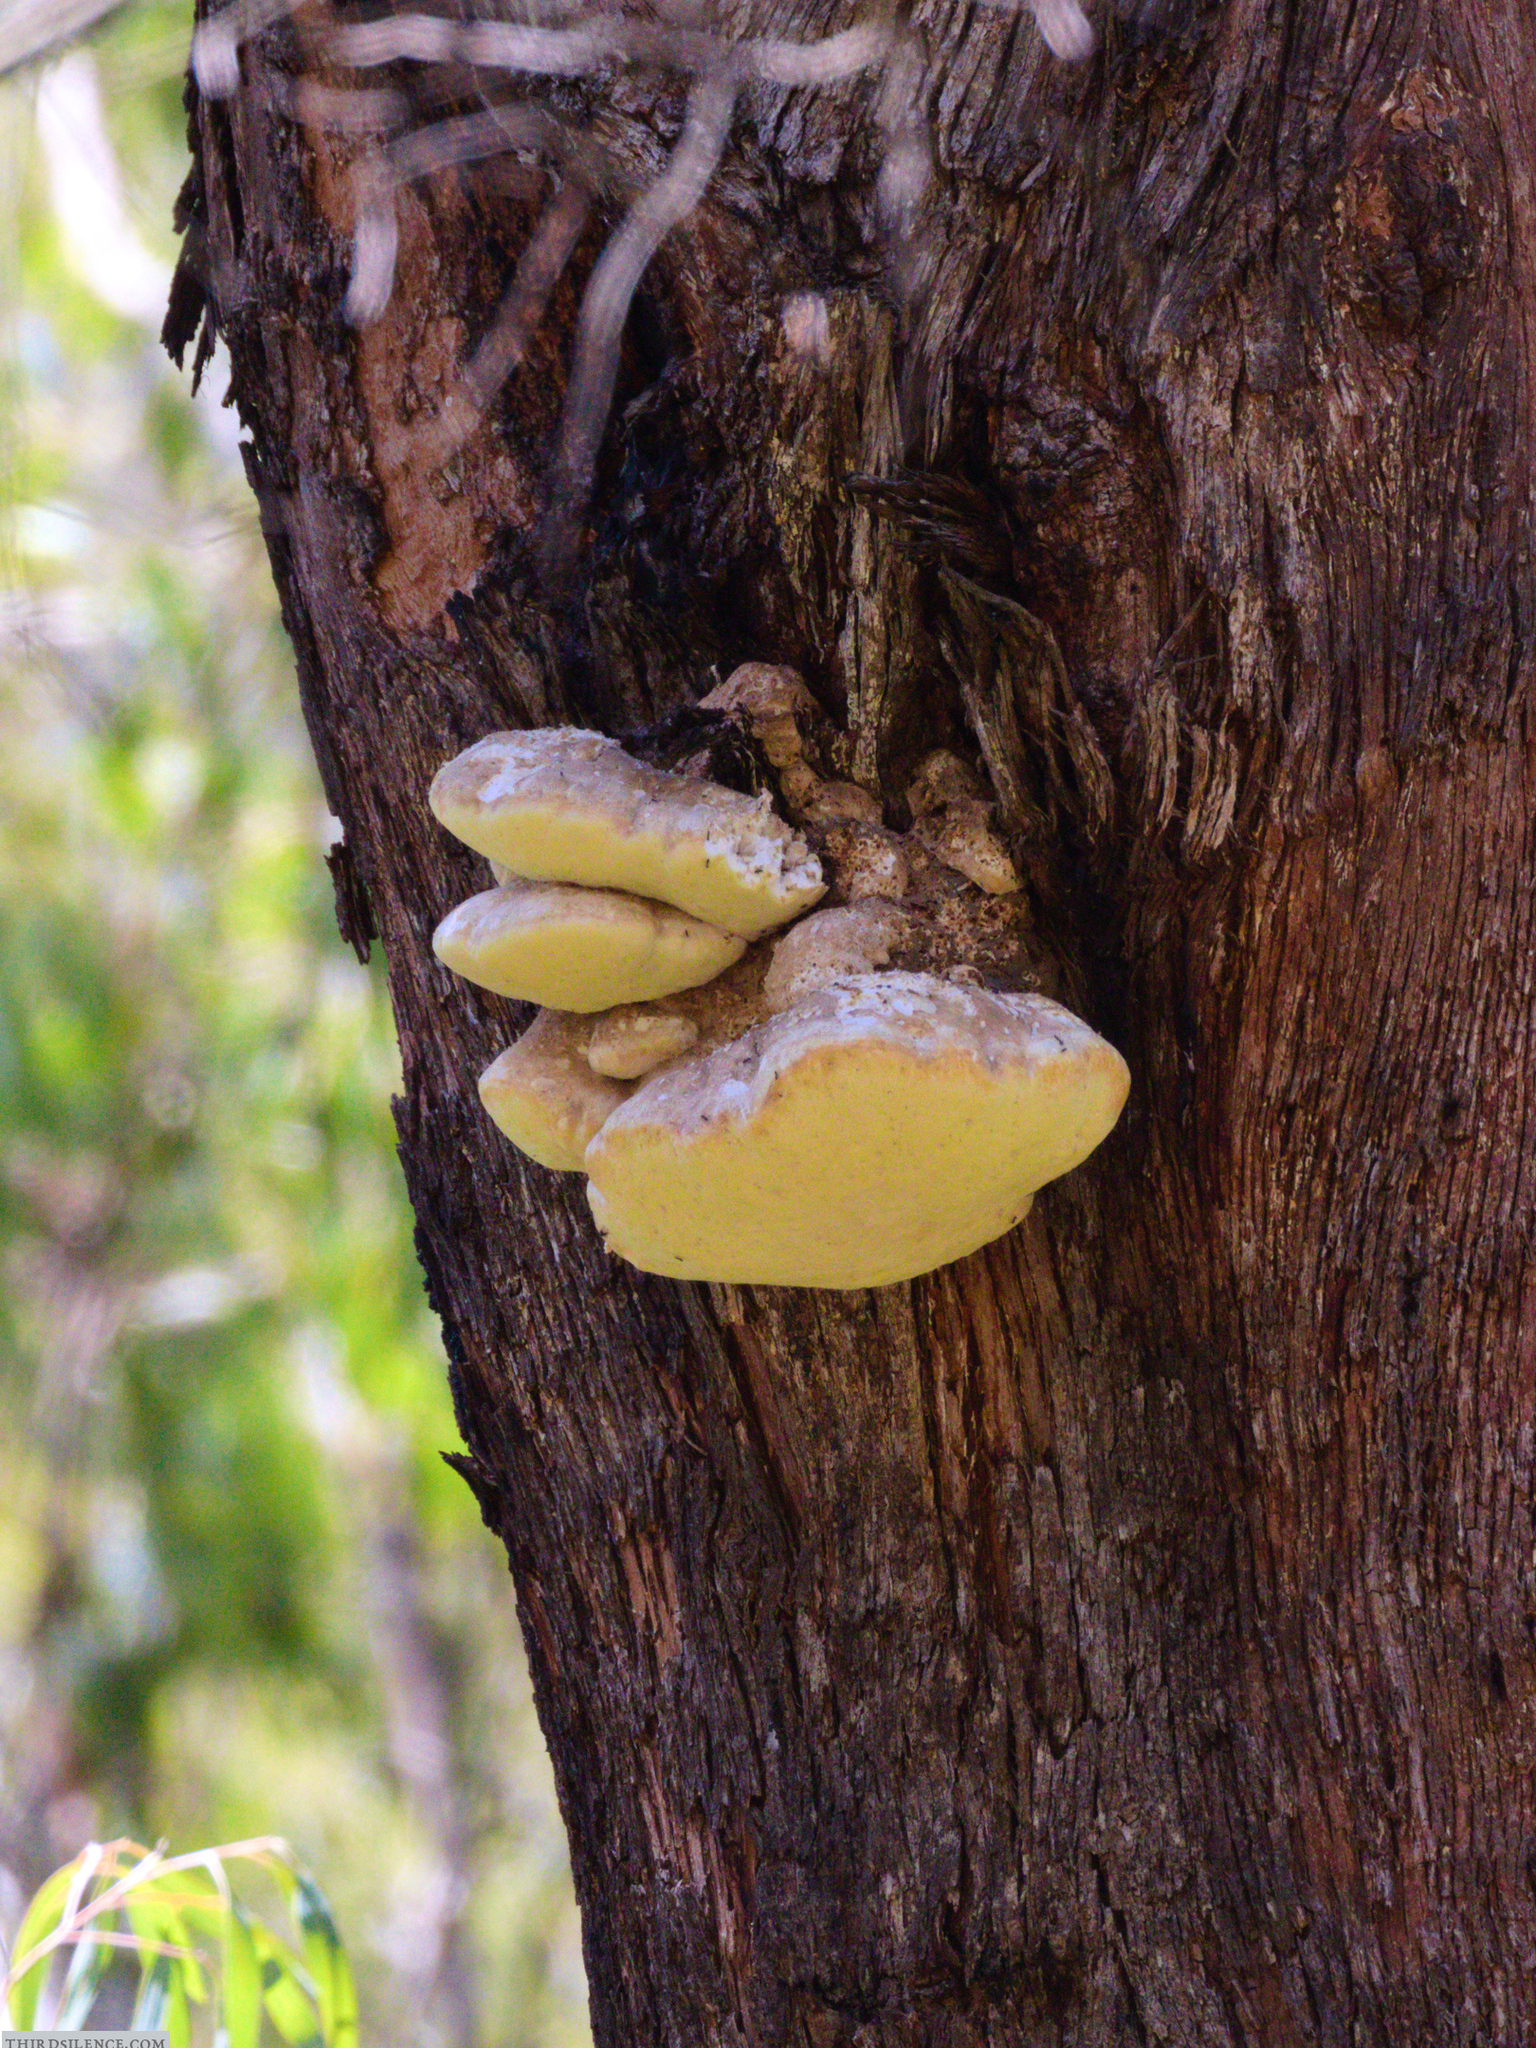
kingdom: Fungi
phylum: Basidiomycota
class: Agaricomycetes
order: Polyporales
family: Laetiporaceae
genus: Laetiporus
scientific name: Laetiporus portentosus
